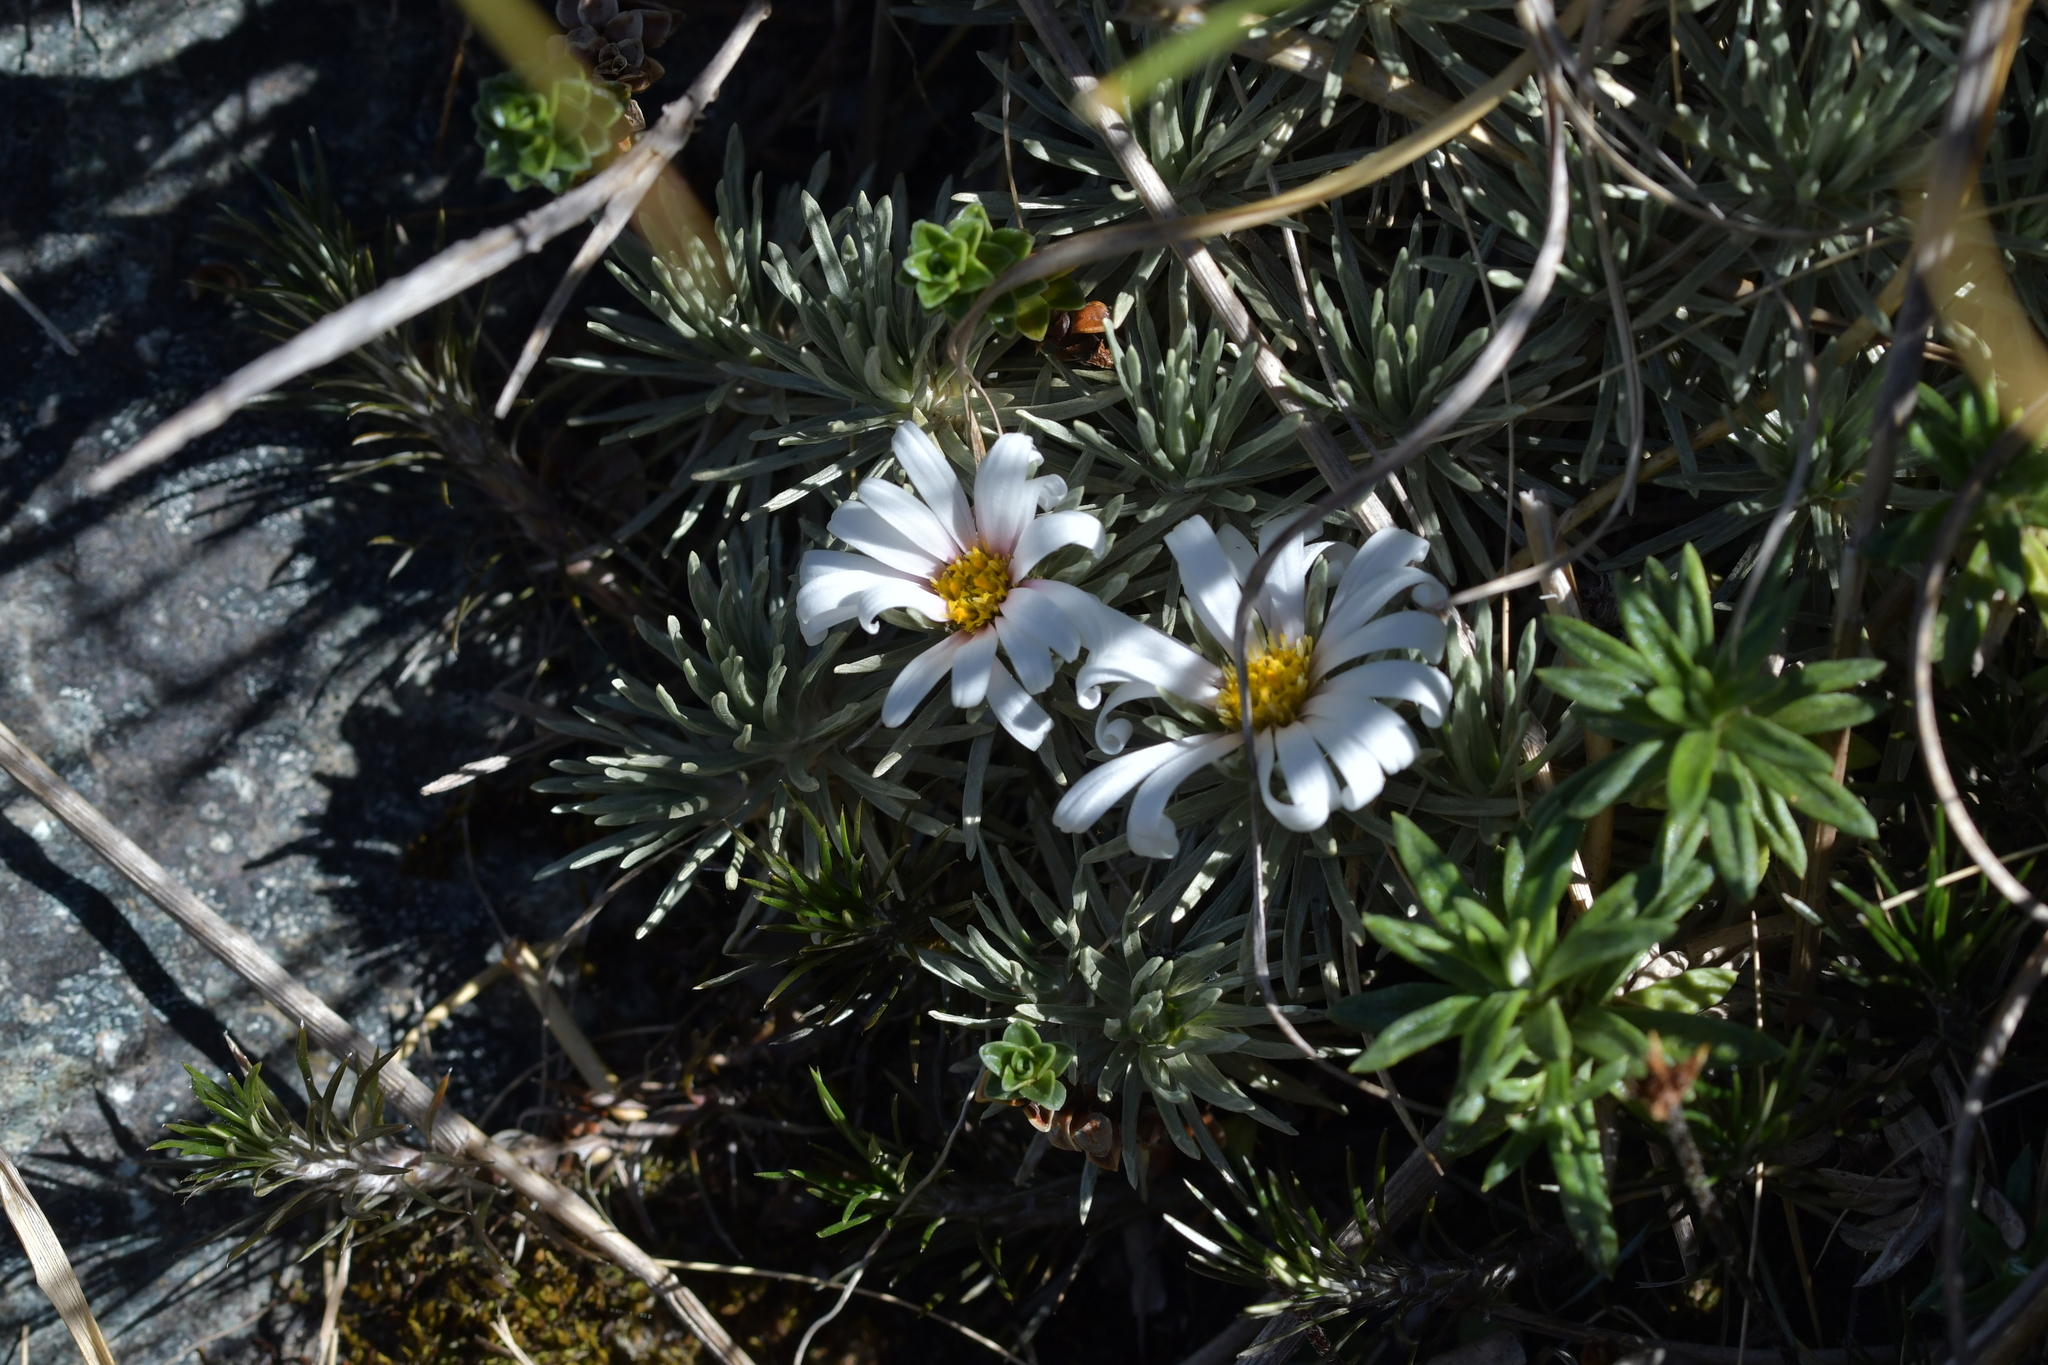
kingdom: Plantae
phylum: Tracheophyta
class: Magnoliopsida
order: Asterales
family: Asteraceae
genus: Celmisia
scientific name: Celmisia sessiliflora
